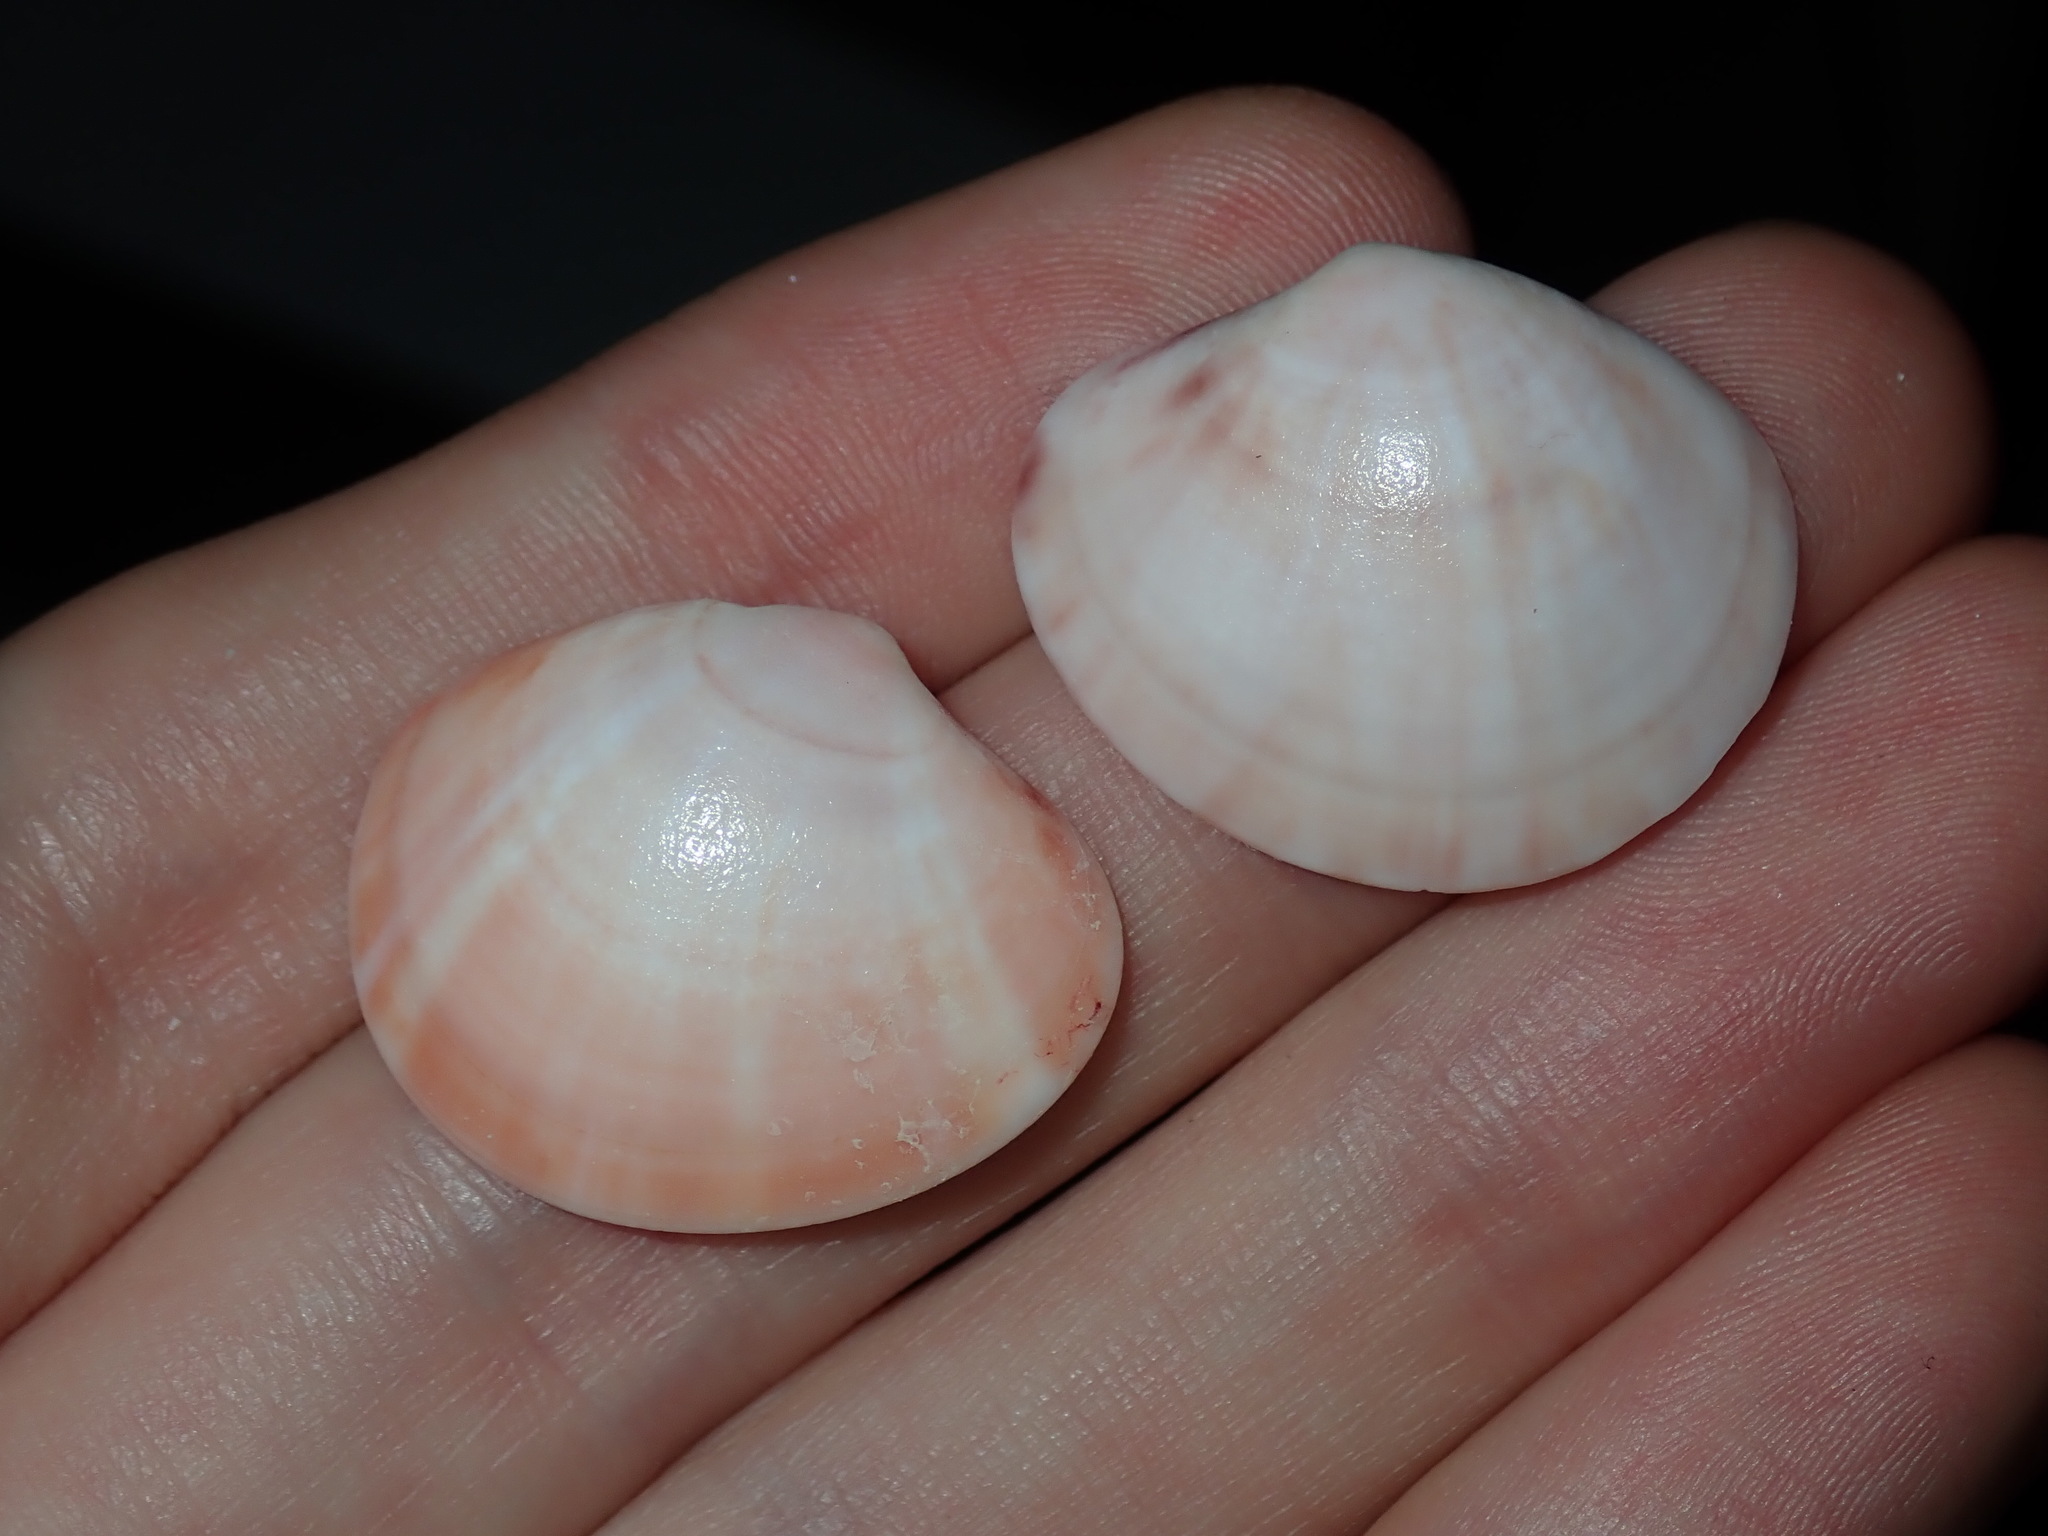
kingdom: Animalia
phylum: Mollusca
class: Bivalvia
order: Venerida
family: Veneridae
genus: Sunetta
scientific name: Sunetta vaginalis
